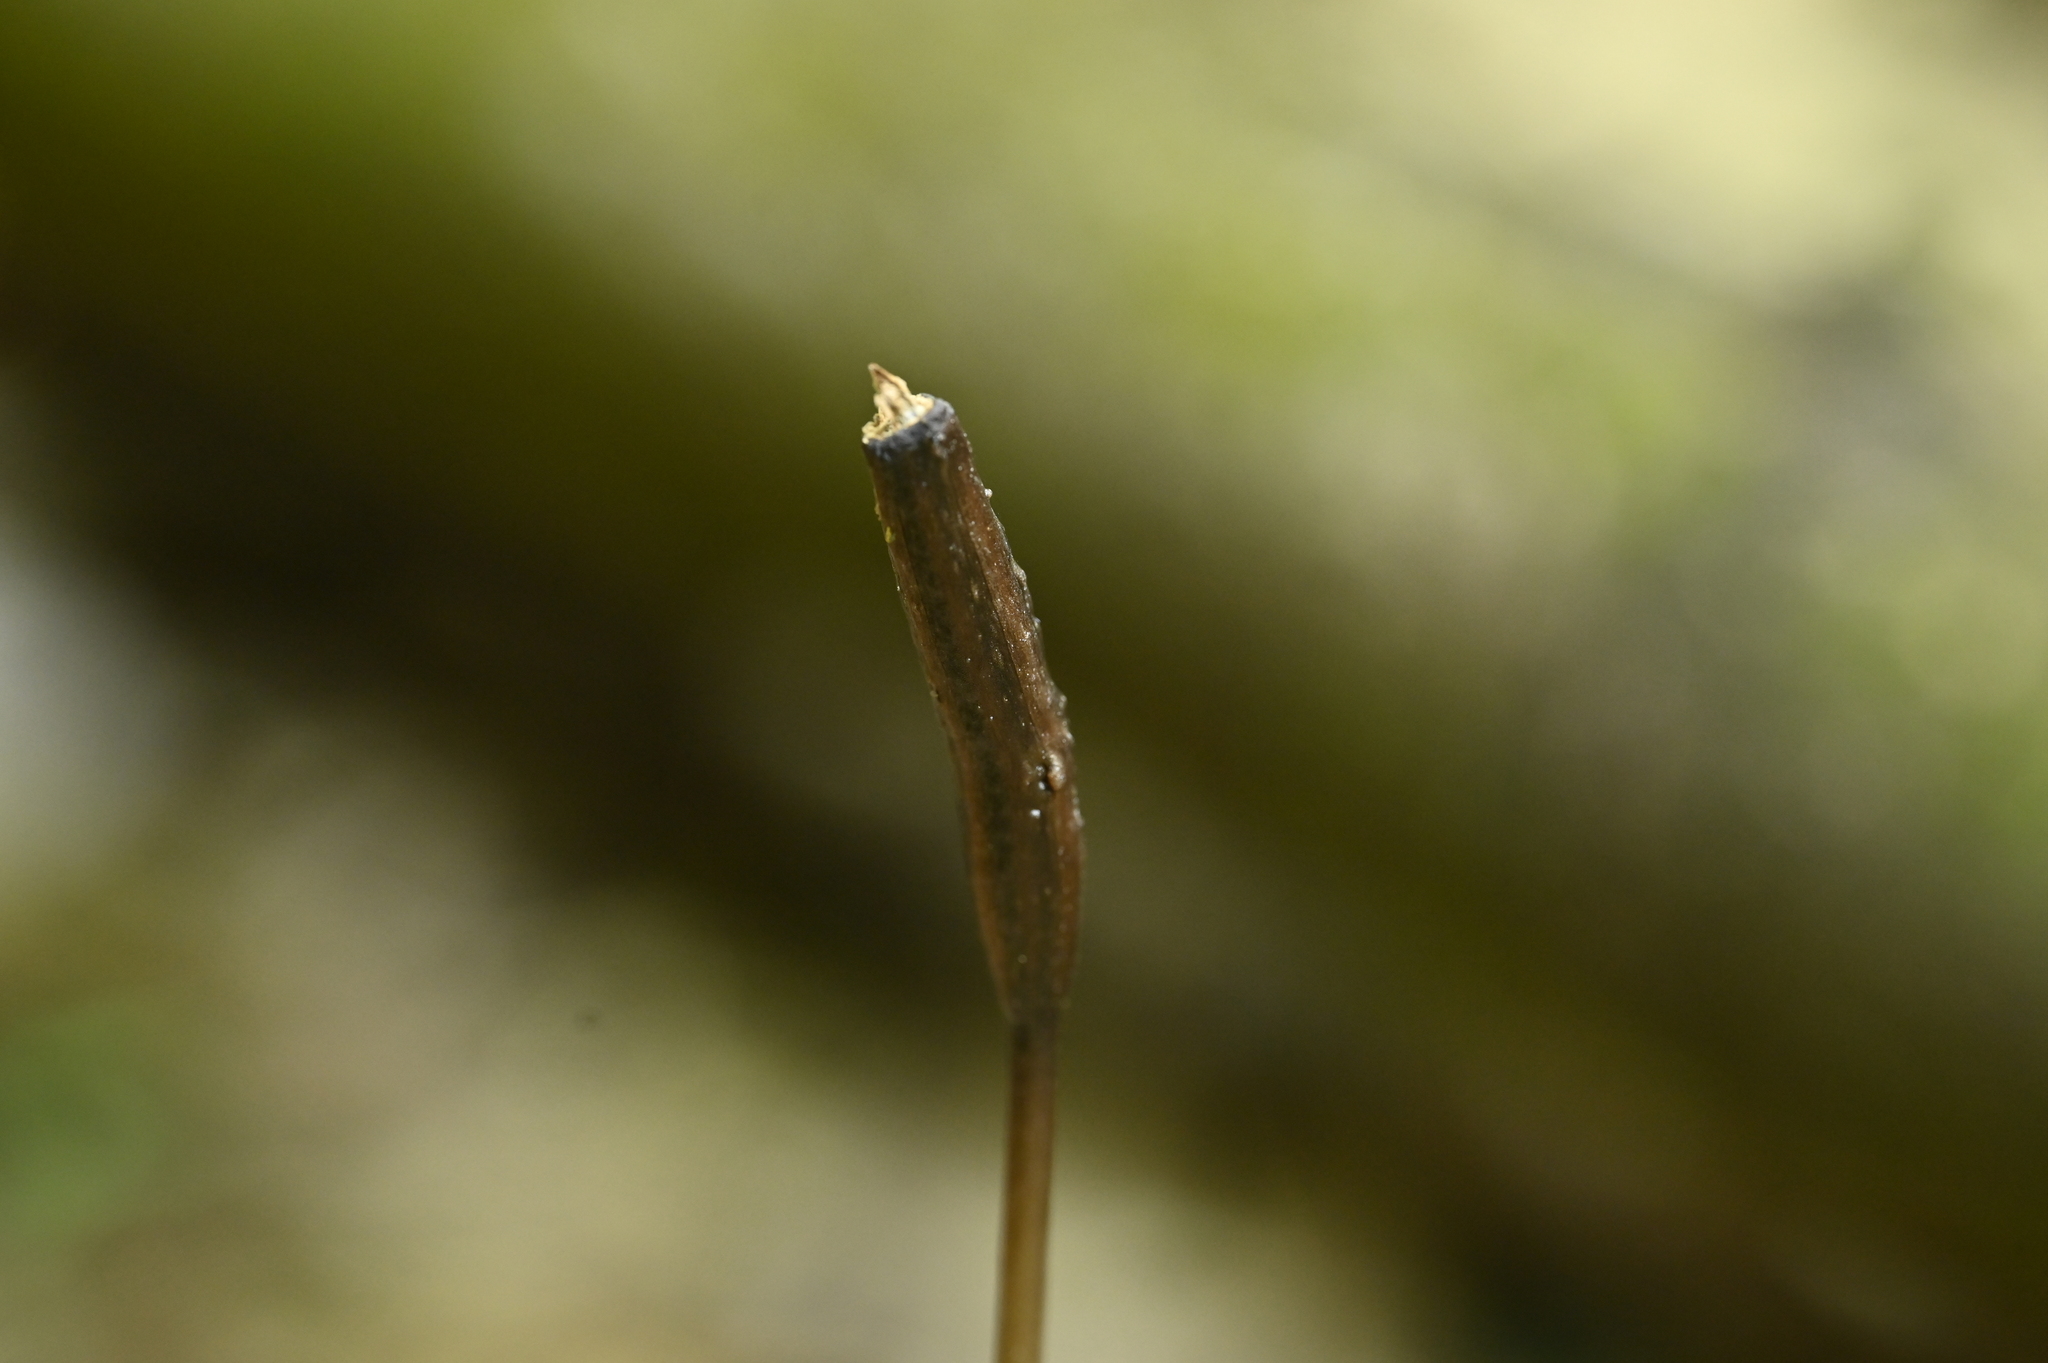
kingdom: Plantae
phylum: Tracheophyta
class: Liliopsida
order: Asparagales
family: Orchidaceae
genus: Gastrodia
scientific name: Gastrodia pubilabiata
